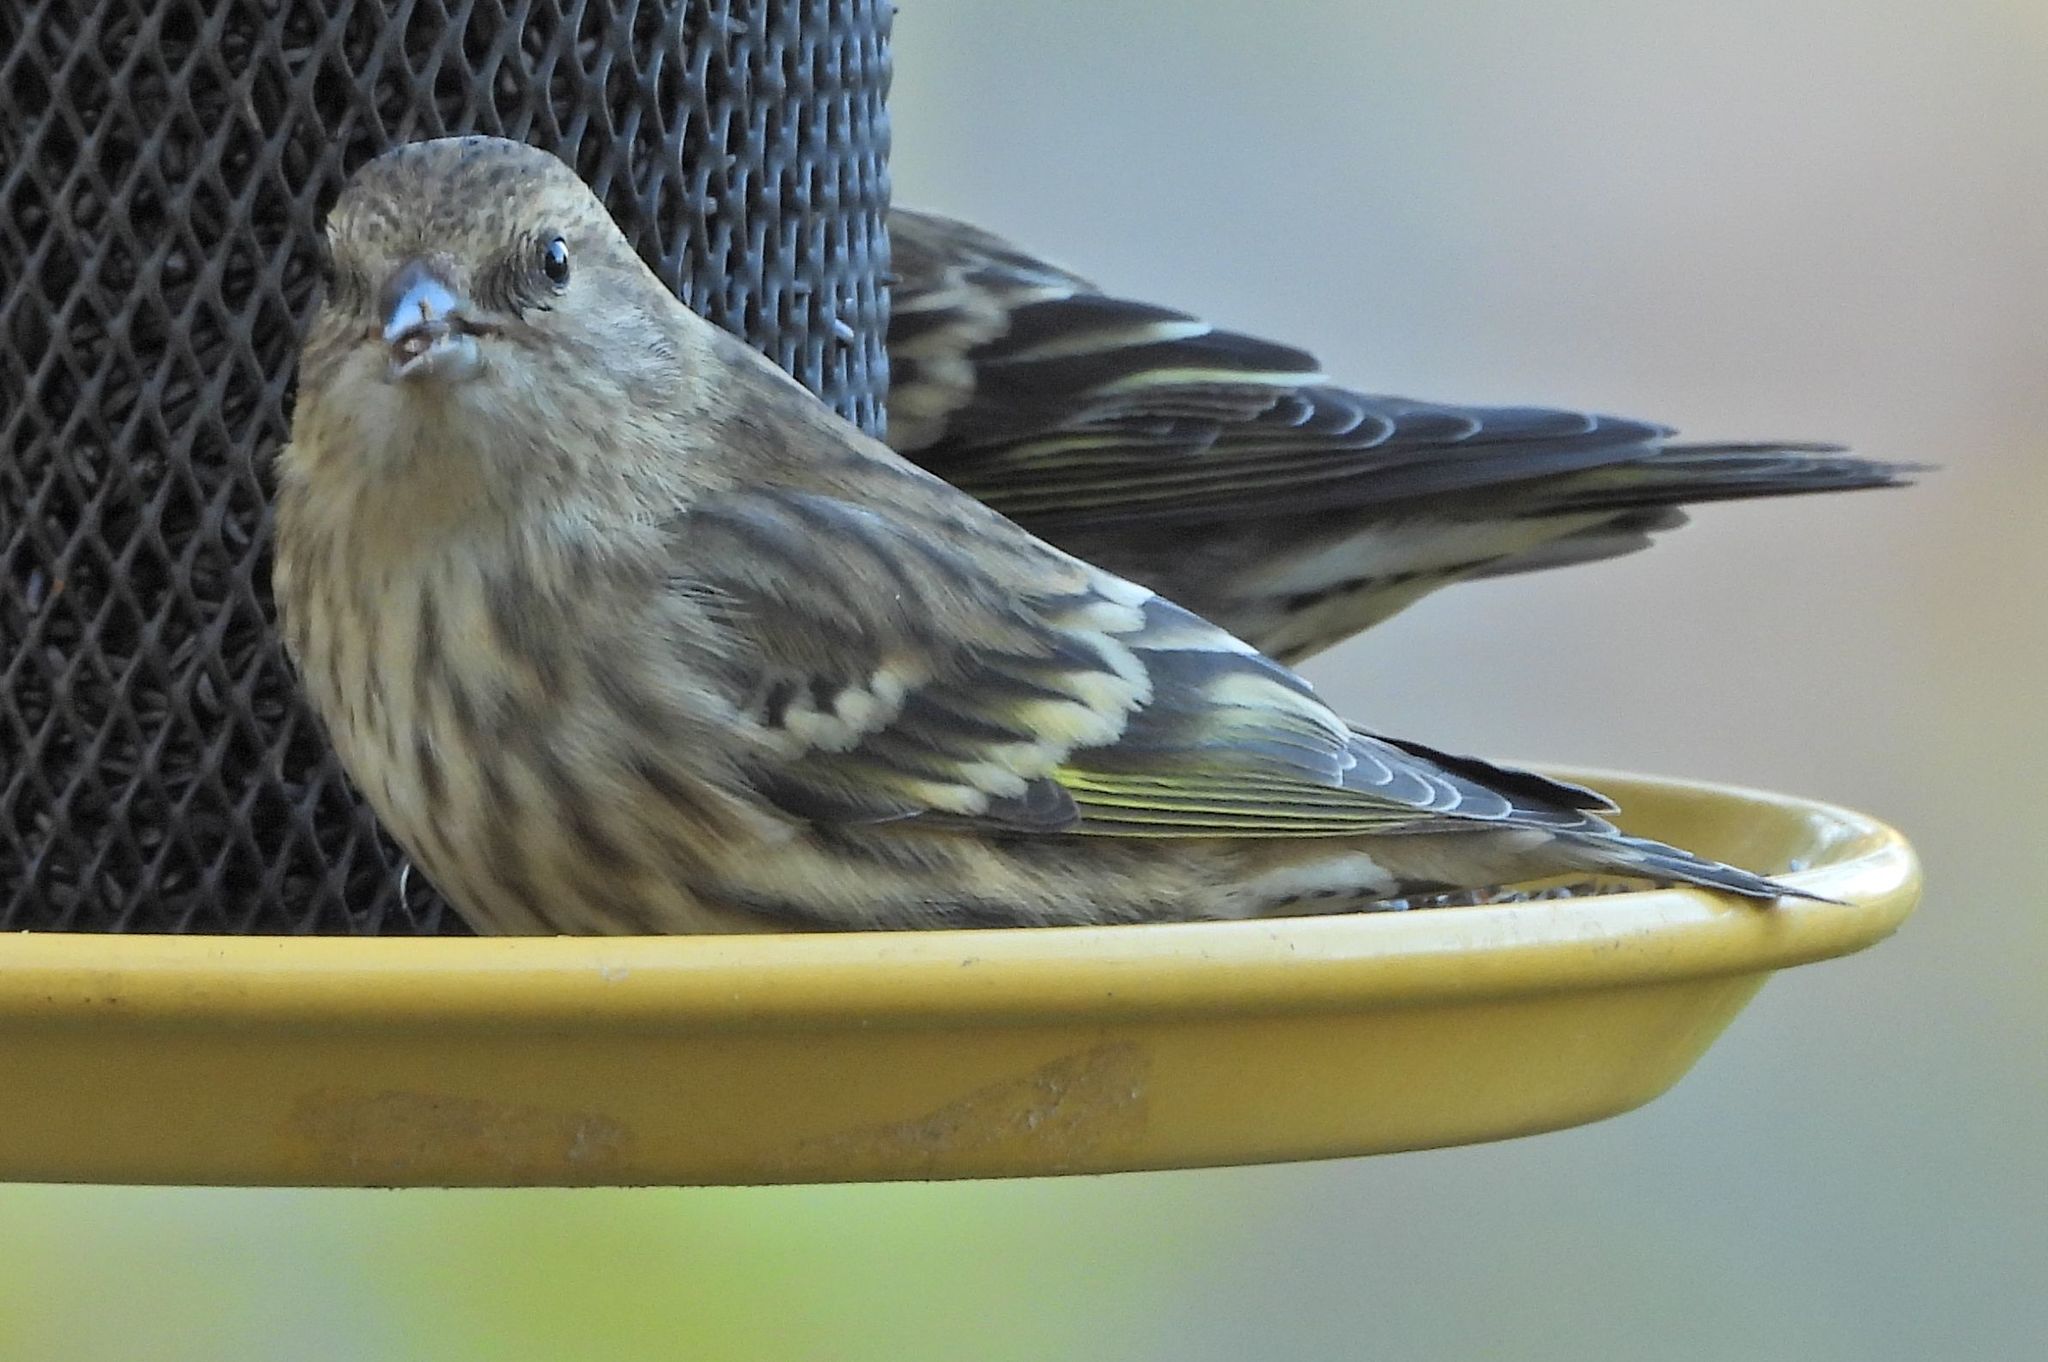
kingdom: Animalia
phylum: Chordata
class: Aves
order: Passeriformes
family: Fringillidae
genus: Spinus
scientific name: Spinus pinus
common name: Pine siskin
